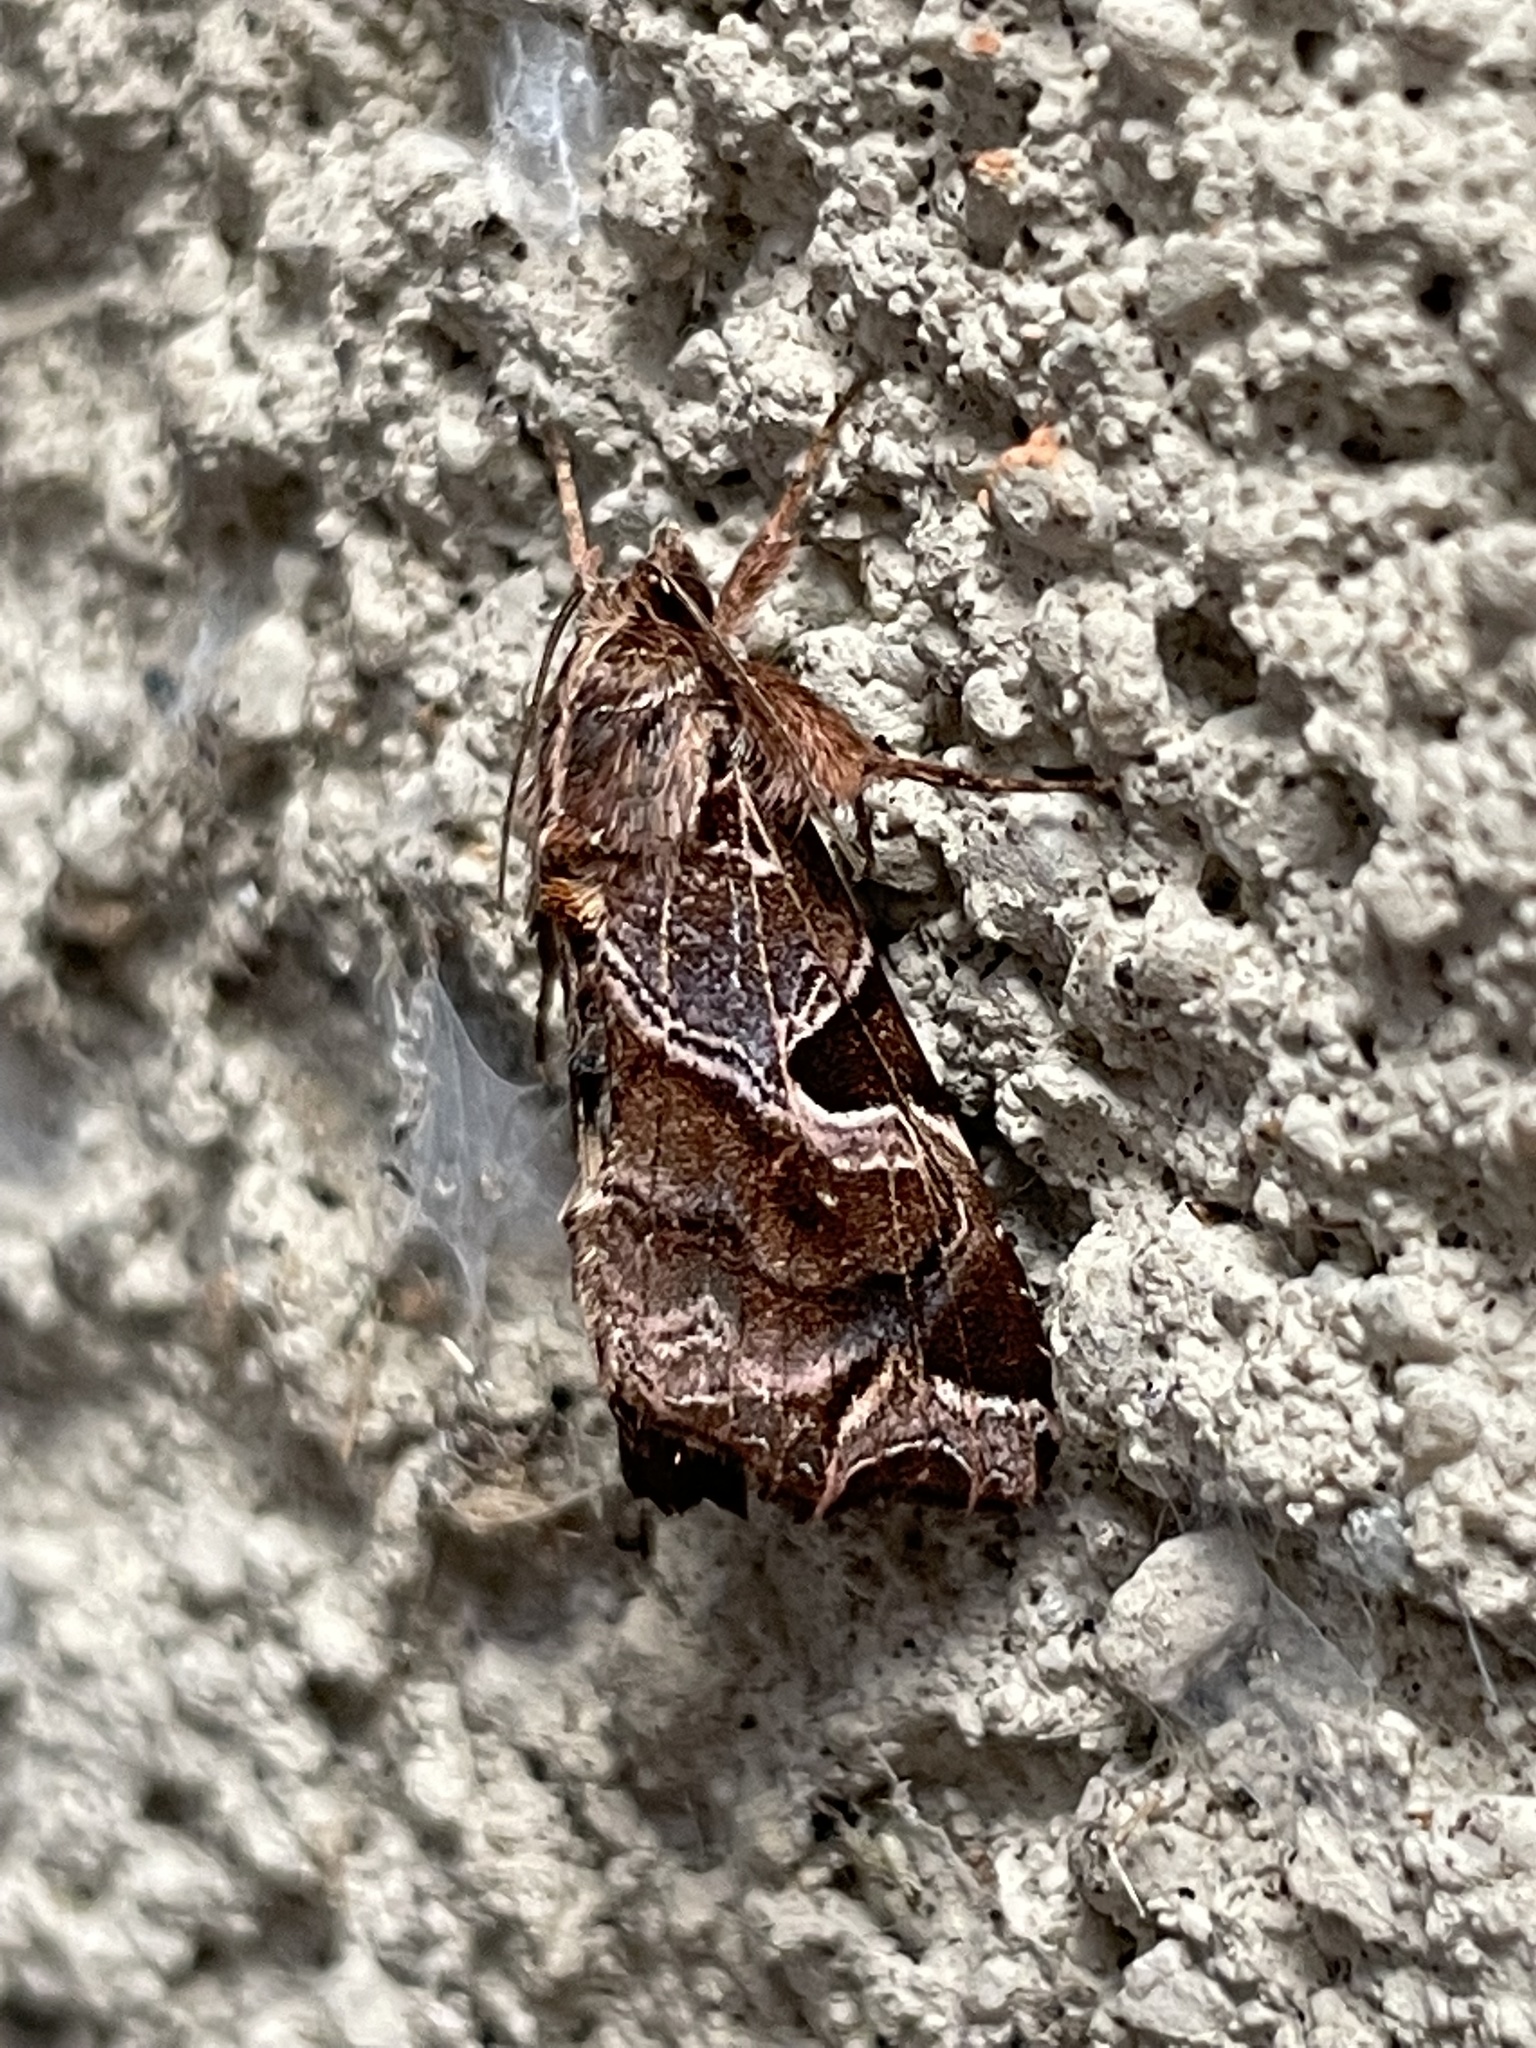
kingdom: Animalia
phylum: Arthropoda
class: Insecta
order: Lepidoptera
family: Noctuidae
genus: Callopistria
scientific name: Callopistria floridensis
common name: Florida fern moth
